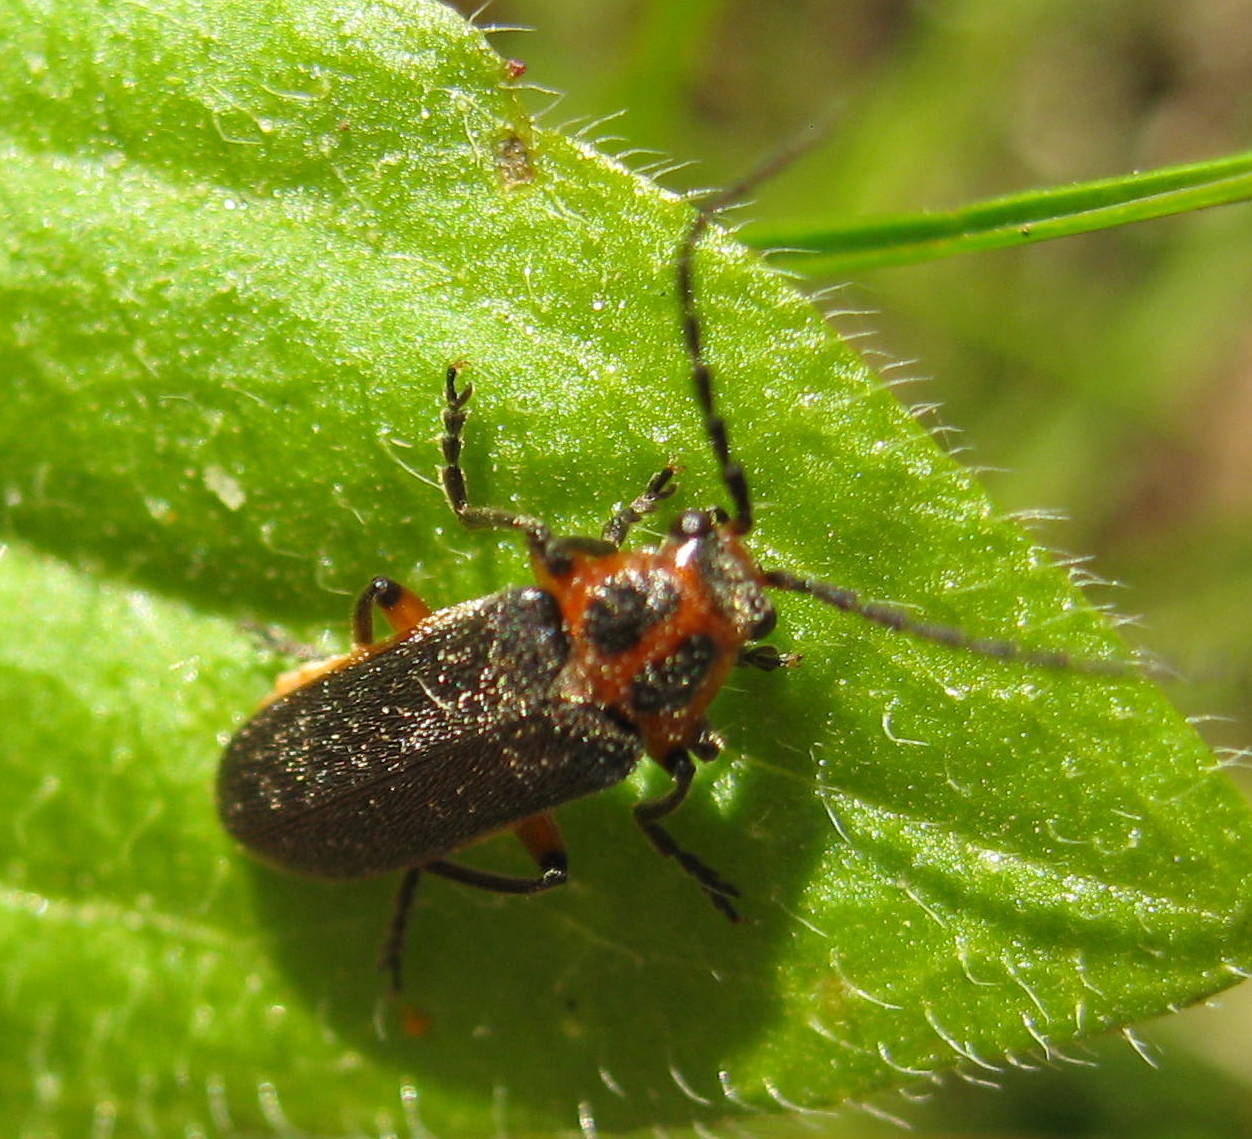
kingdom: Animalia
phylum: Arthropoda
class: Insecta
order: Coleoptera
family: Cantharidae
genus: Atalantycha
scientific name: Atalantycha bilineata
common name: Two-lined leatherwing
